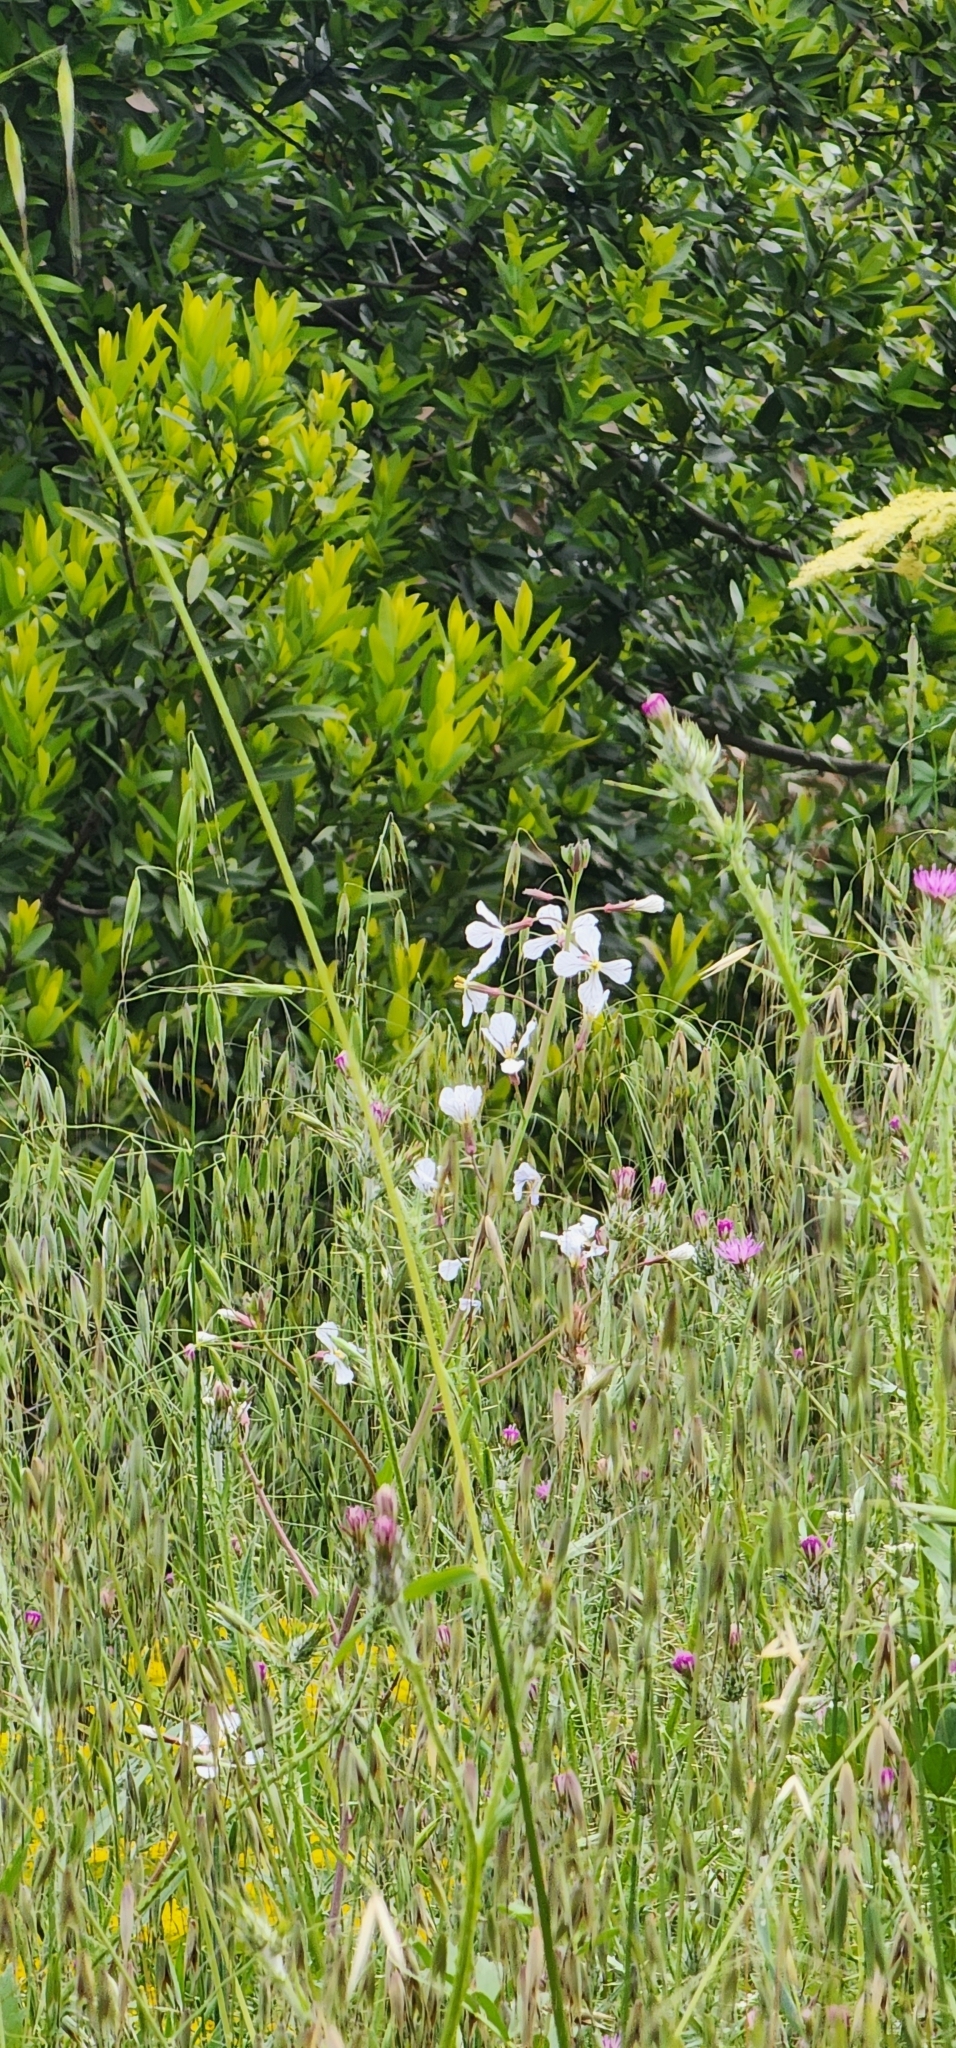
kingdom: Plantae
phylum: Tracheophyta
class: Magnoliopsida
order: Brassicales
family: Brassicaceae
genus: Raphanus
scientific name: Raphanus sativus
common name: Cultivated radish
